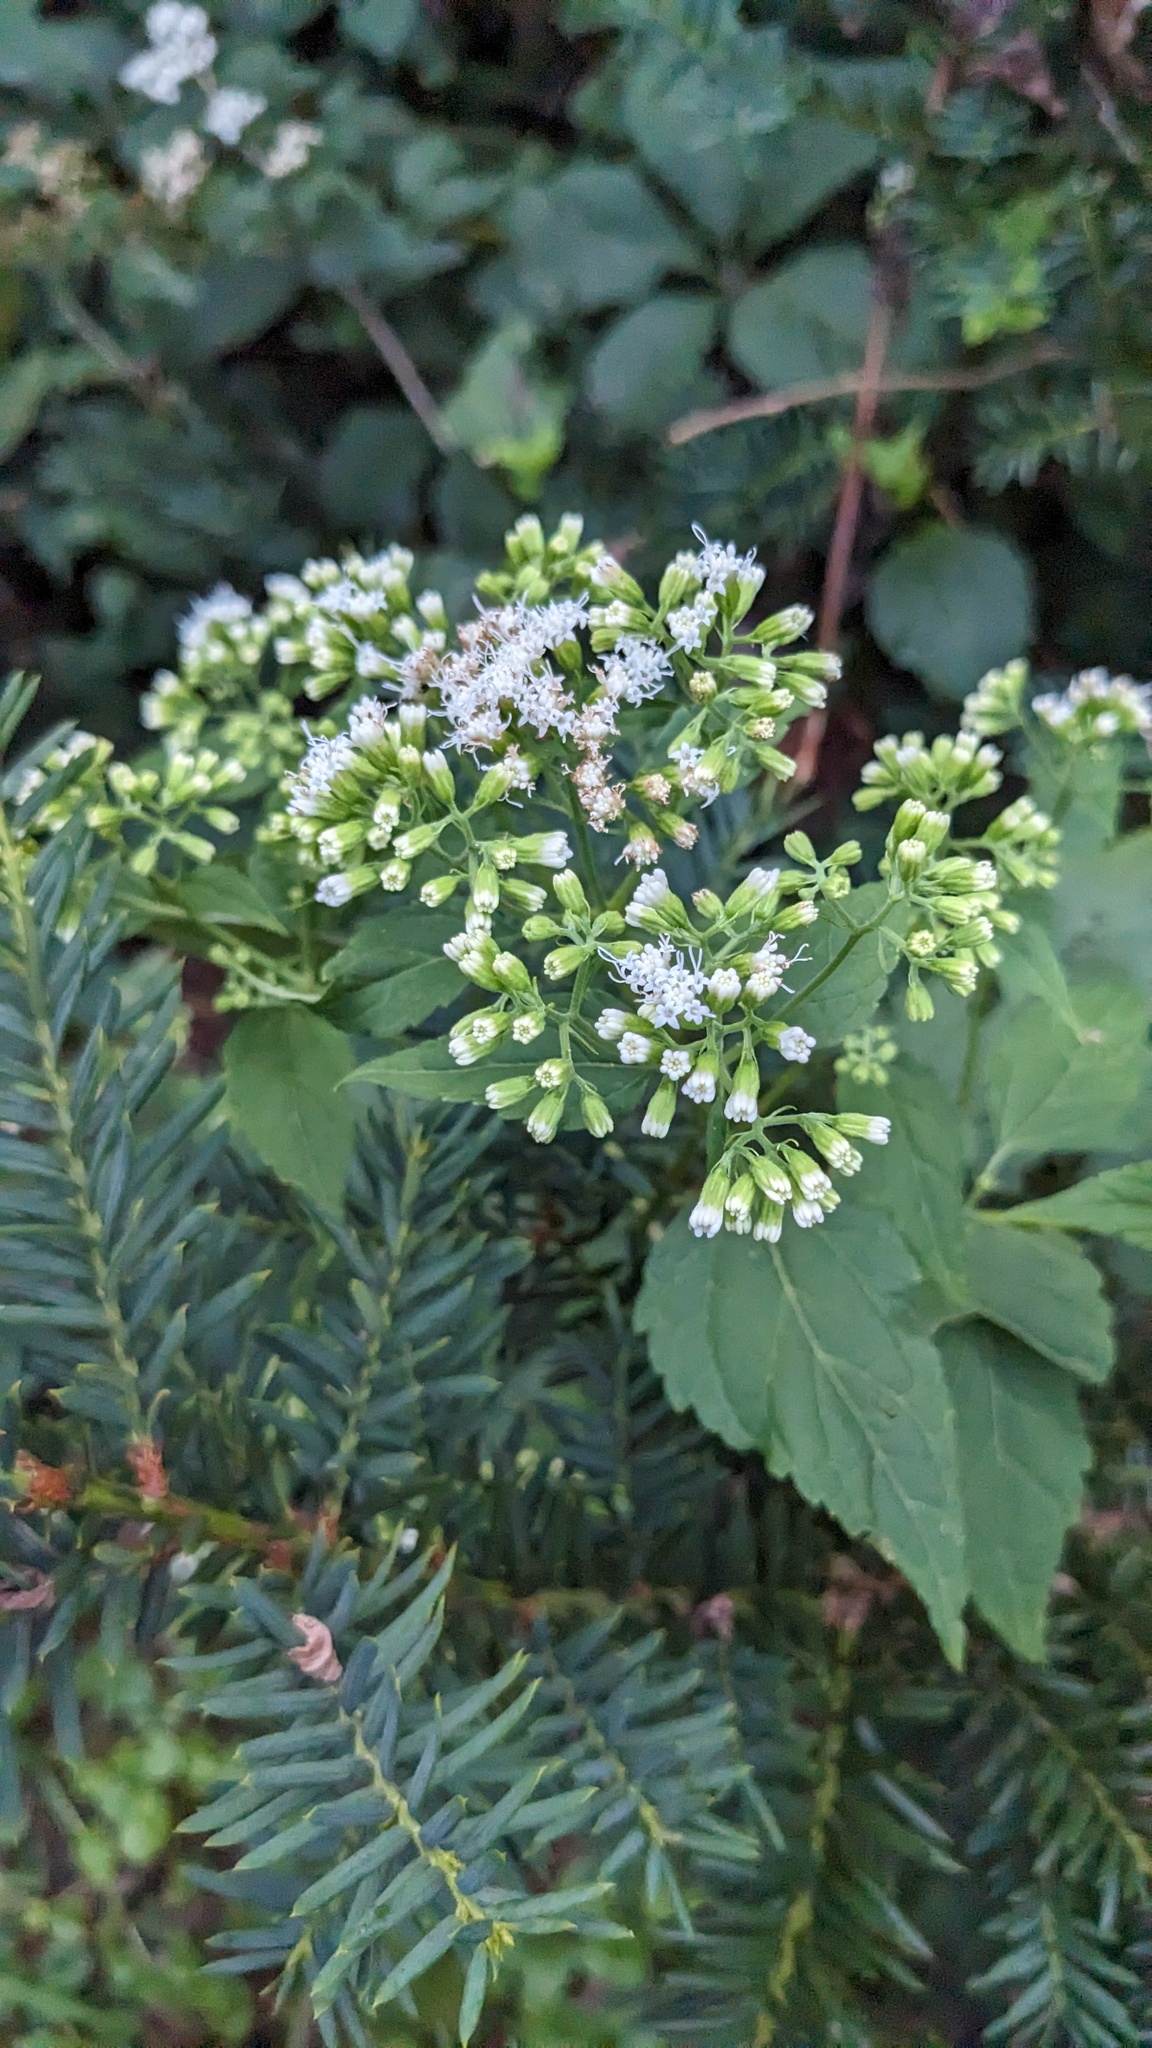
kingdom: Plantae
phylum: Tracheophyta
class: Magnoliopsida
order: Asterales
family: Asteraceae
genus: Ageratina
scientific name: Ageratina altissima
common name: White snakeroot
